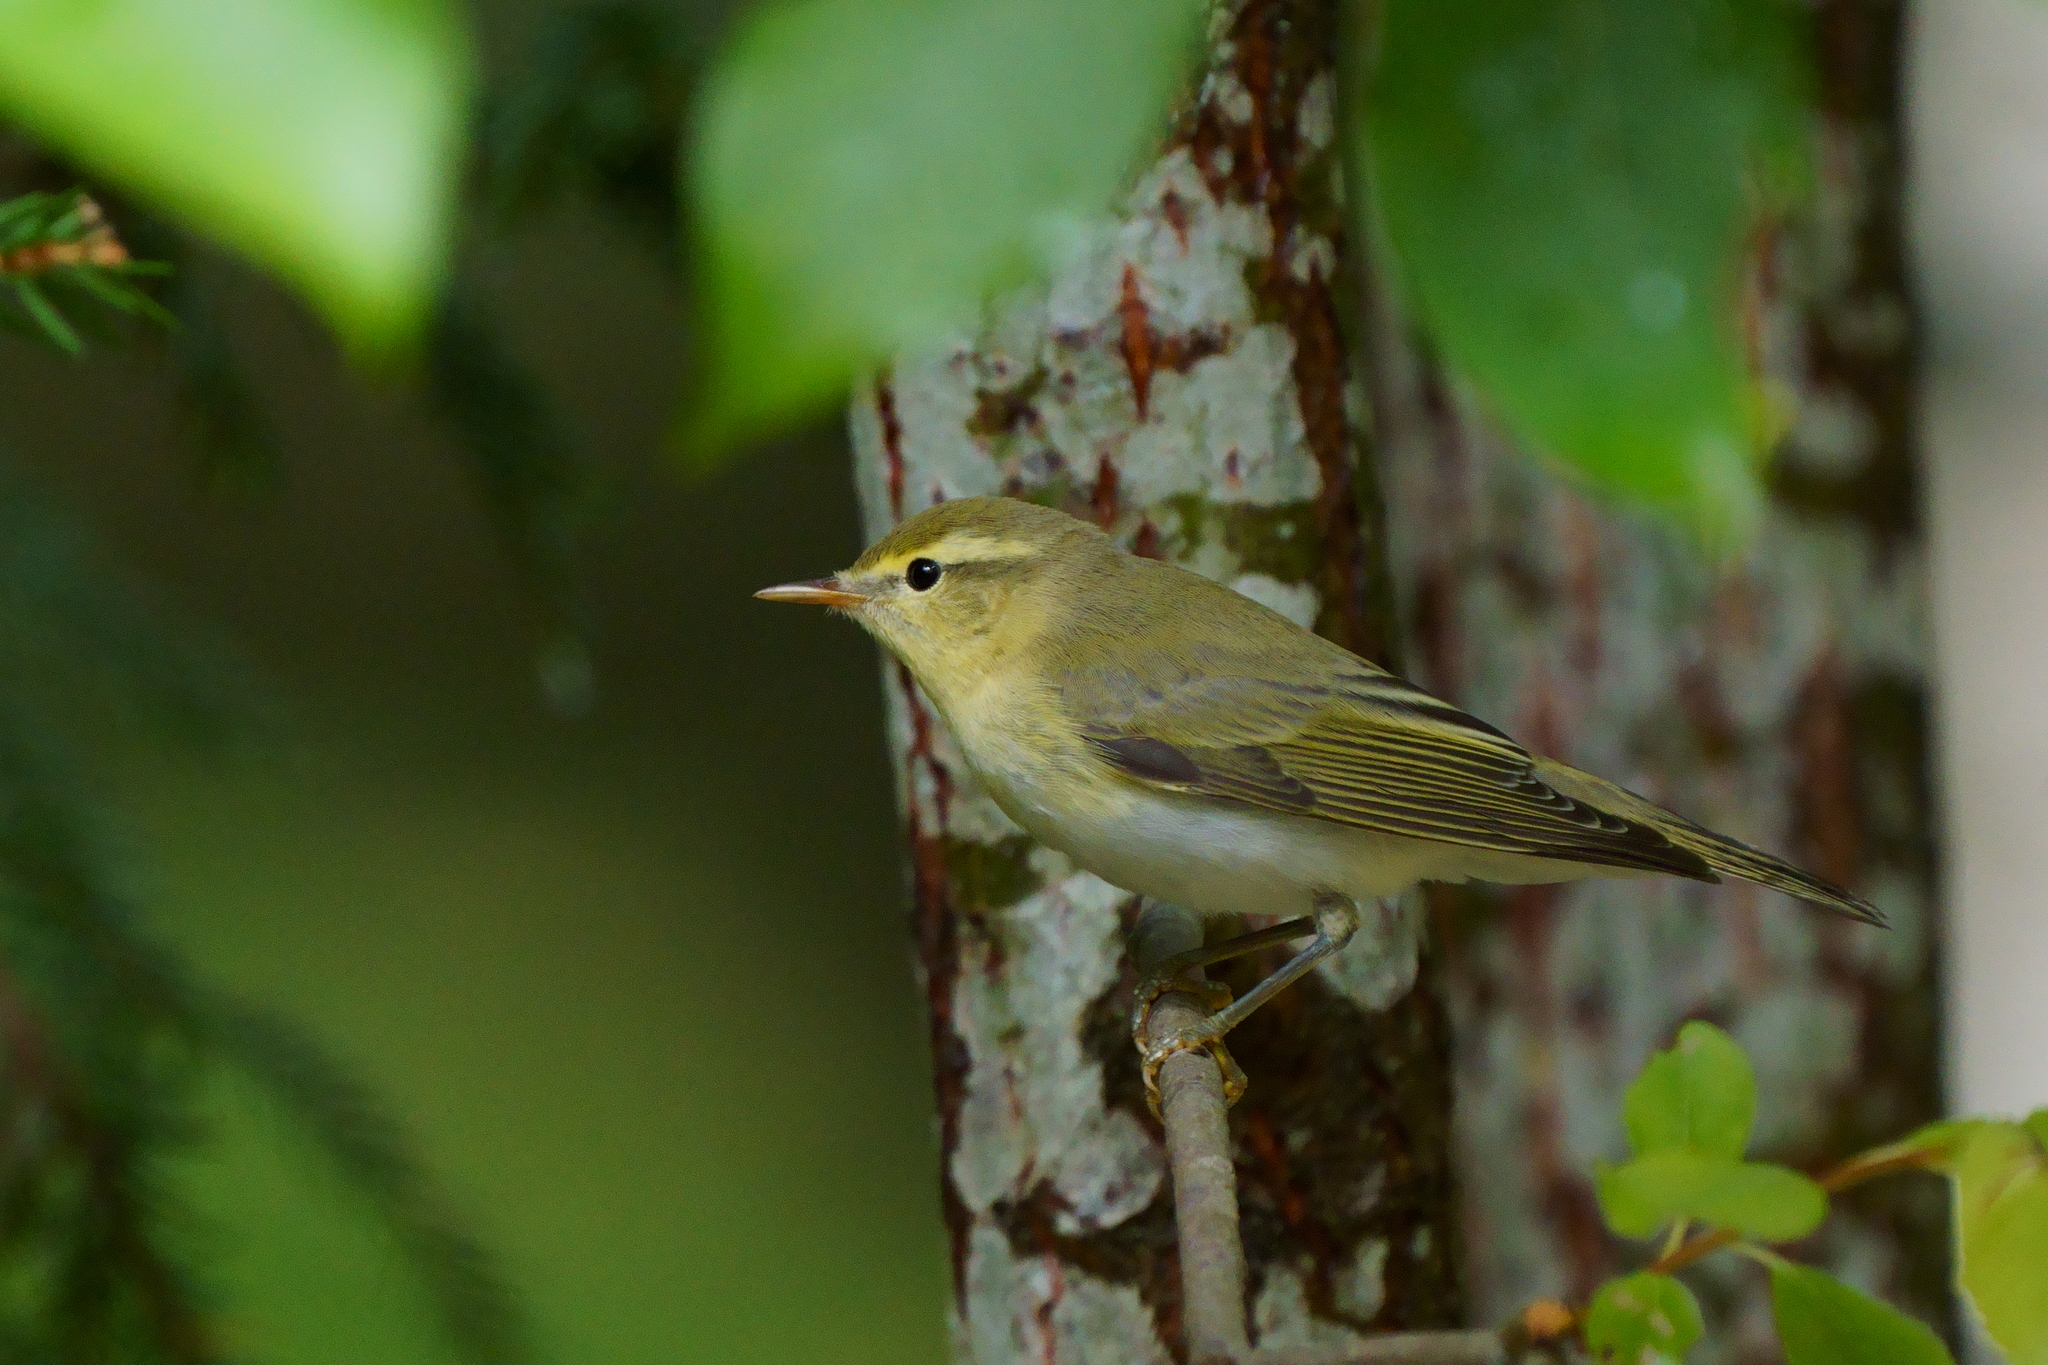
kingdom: Animalia
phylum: Chordata
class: Aves
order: Passeriformes
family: Phylloscopidae
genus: Phylloscopus
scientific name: Phylloscopus sibillatrix
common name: Wood warbler
